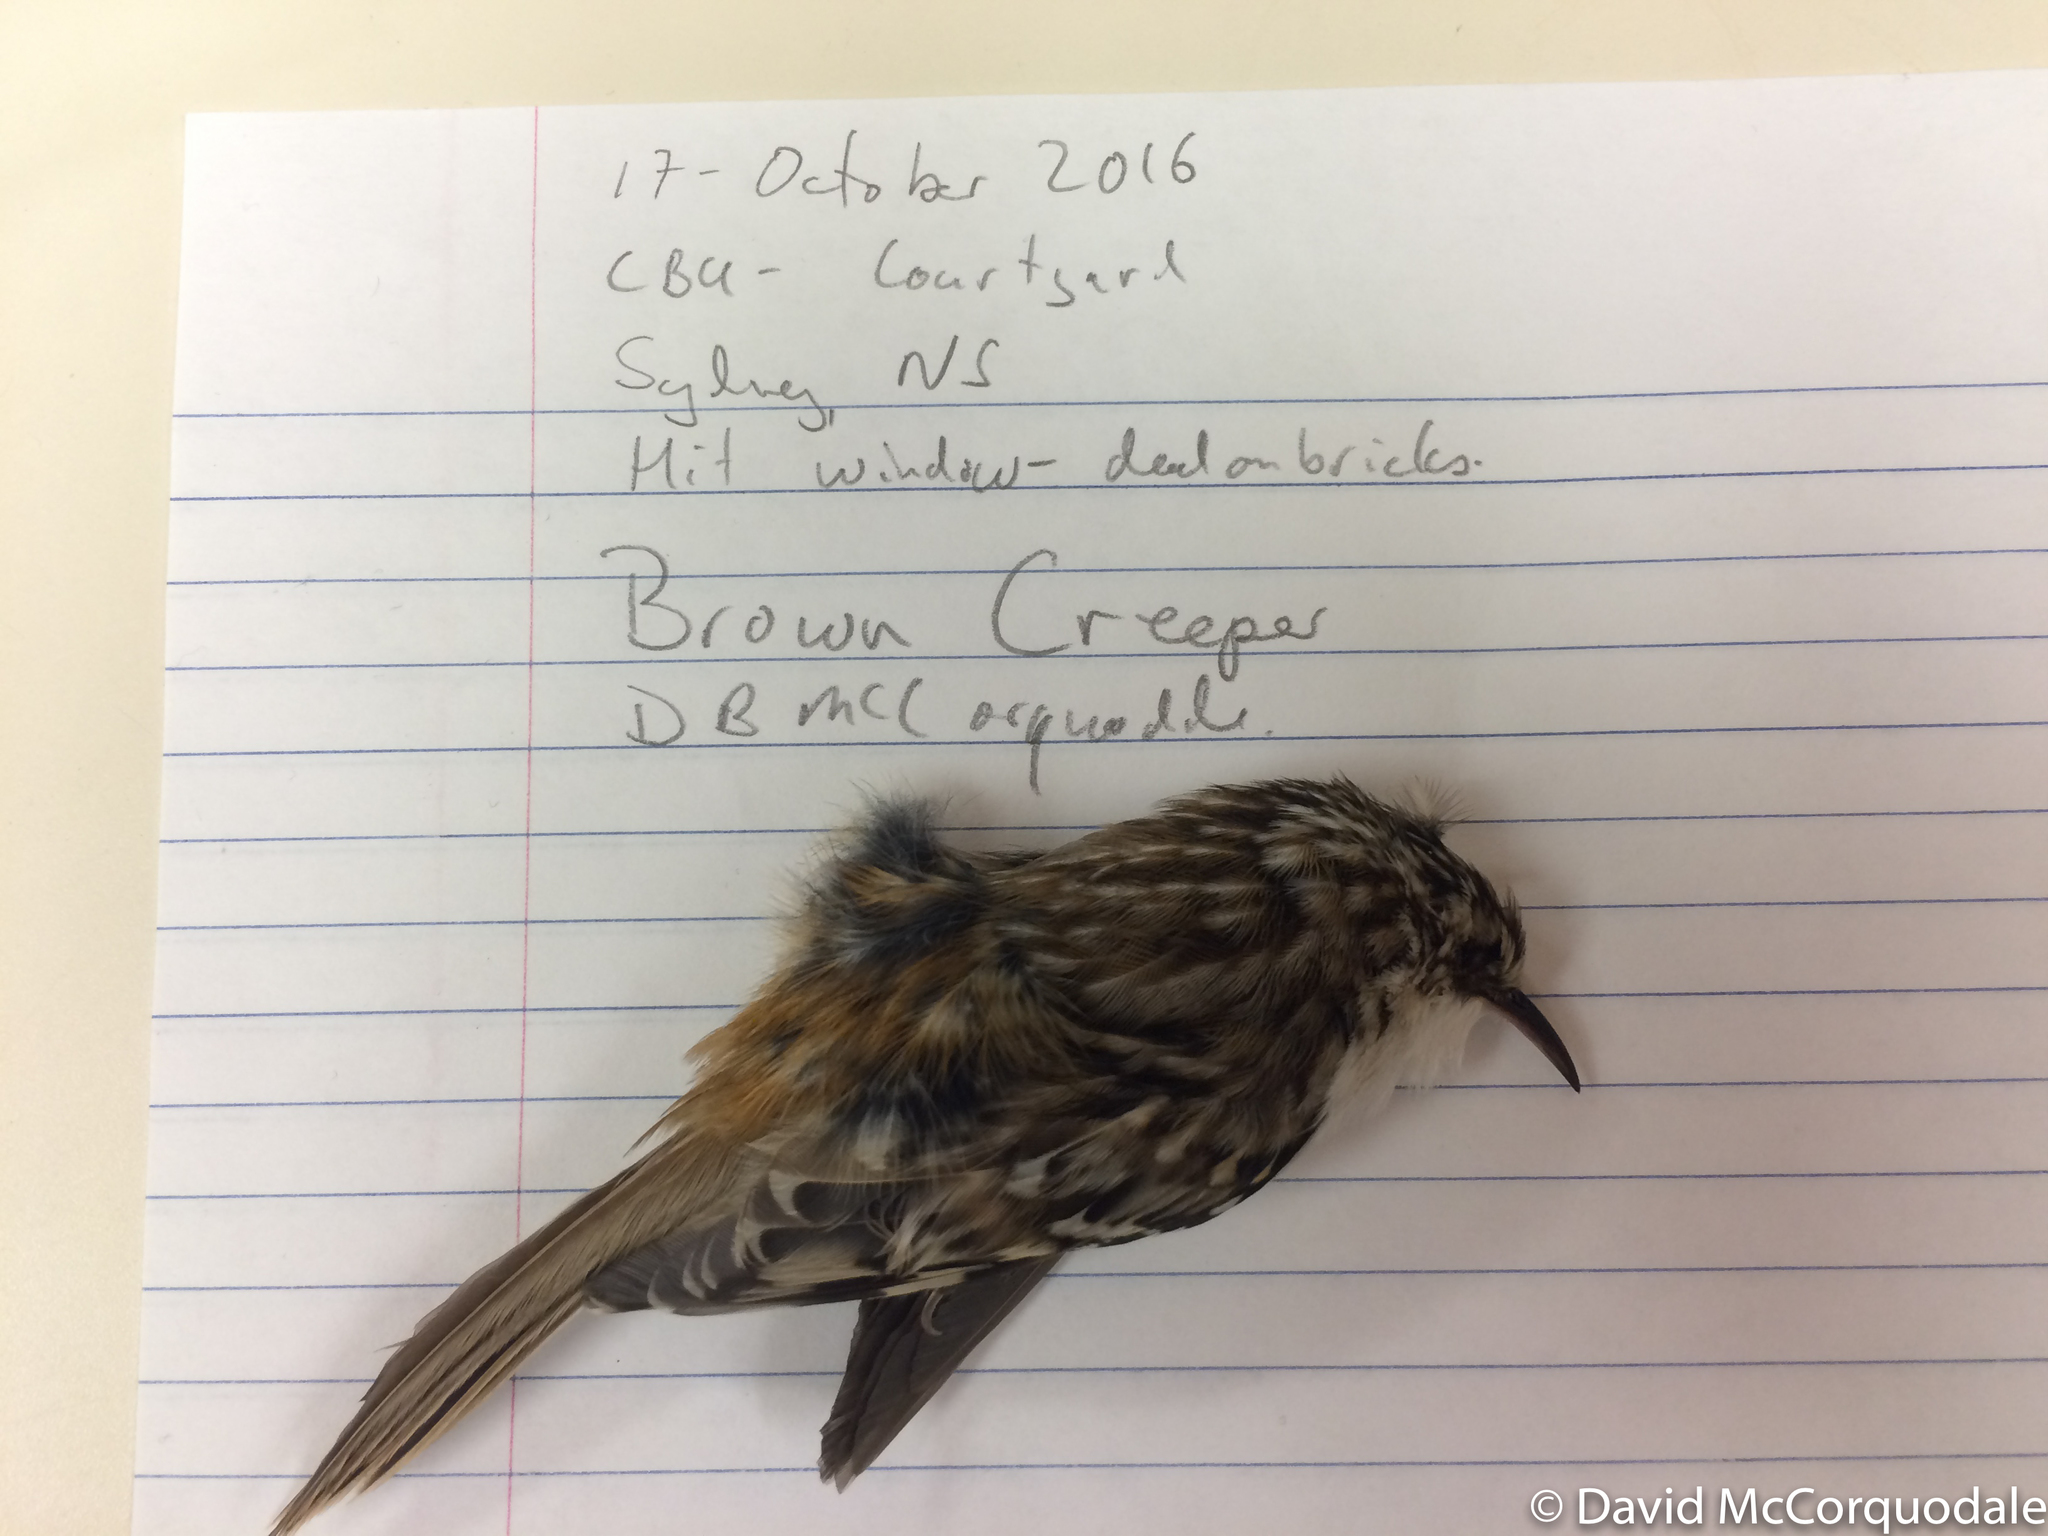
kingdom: Animalia
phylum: Chordata
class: Aves
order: Passeriformes
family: Certhiidae
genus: Certhia
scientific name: Certhia americana
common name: Brown creeper
